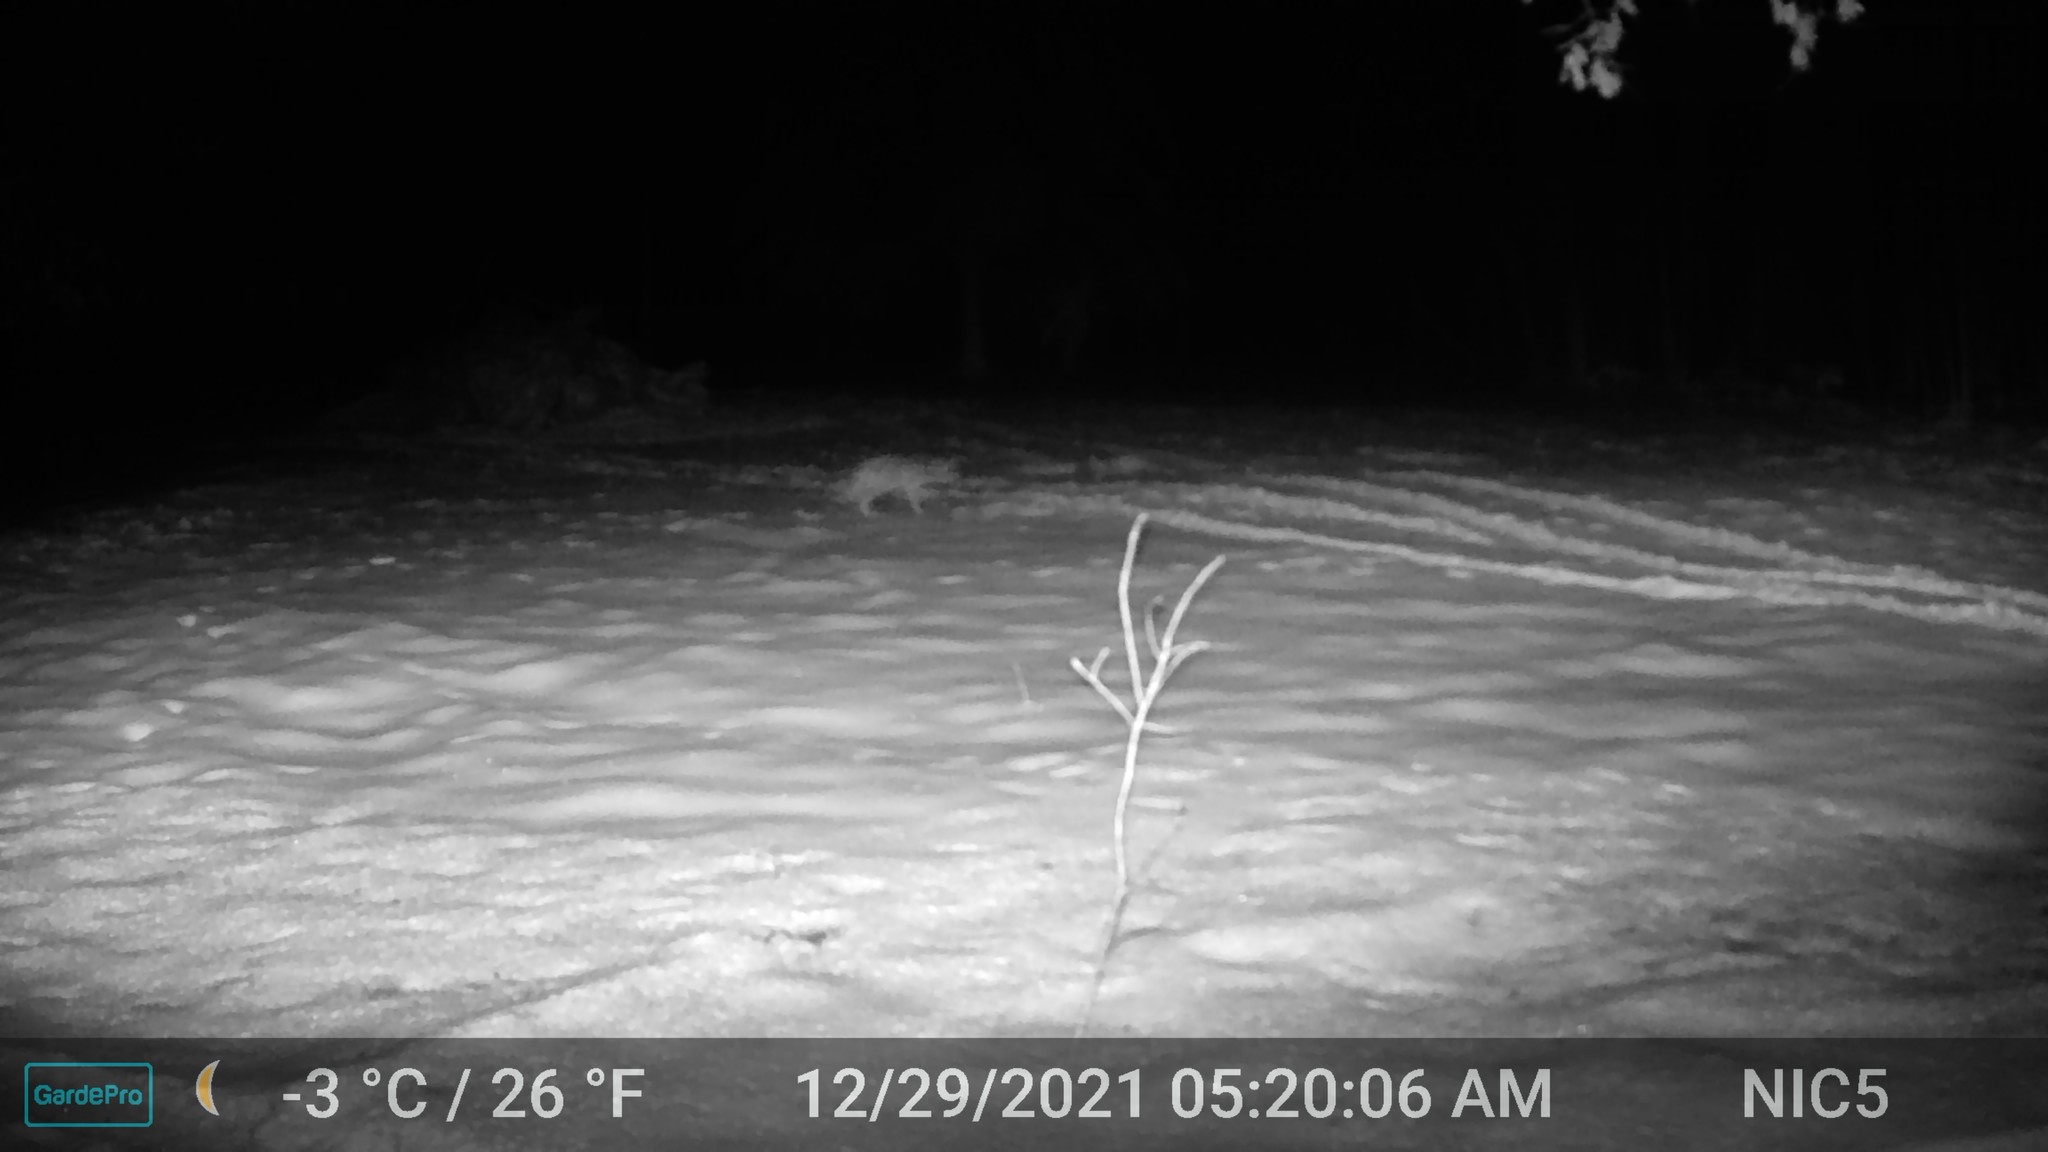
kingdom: Animalia
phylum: Chordata
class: Mammalia
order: Carnivora
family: Canidae
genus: Canis
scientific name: Canis latrans
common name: Coyote
